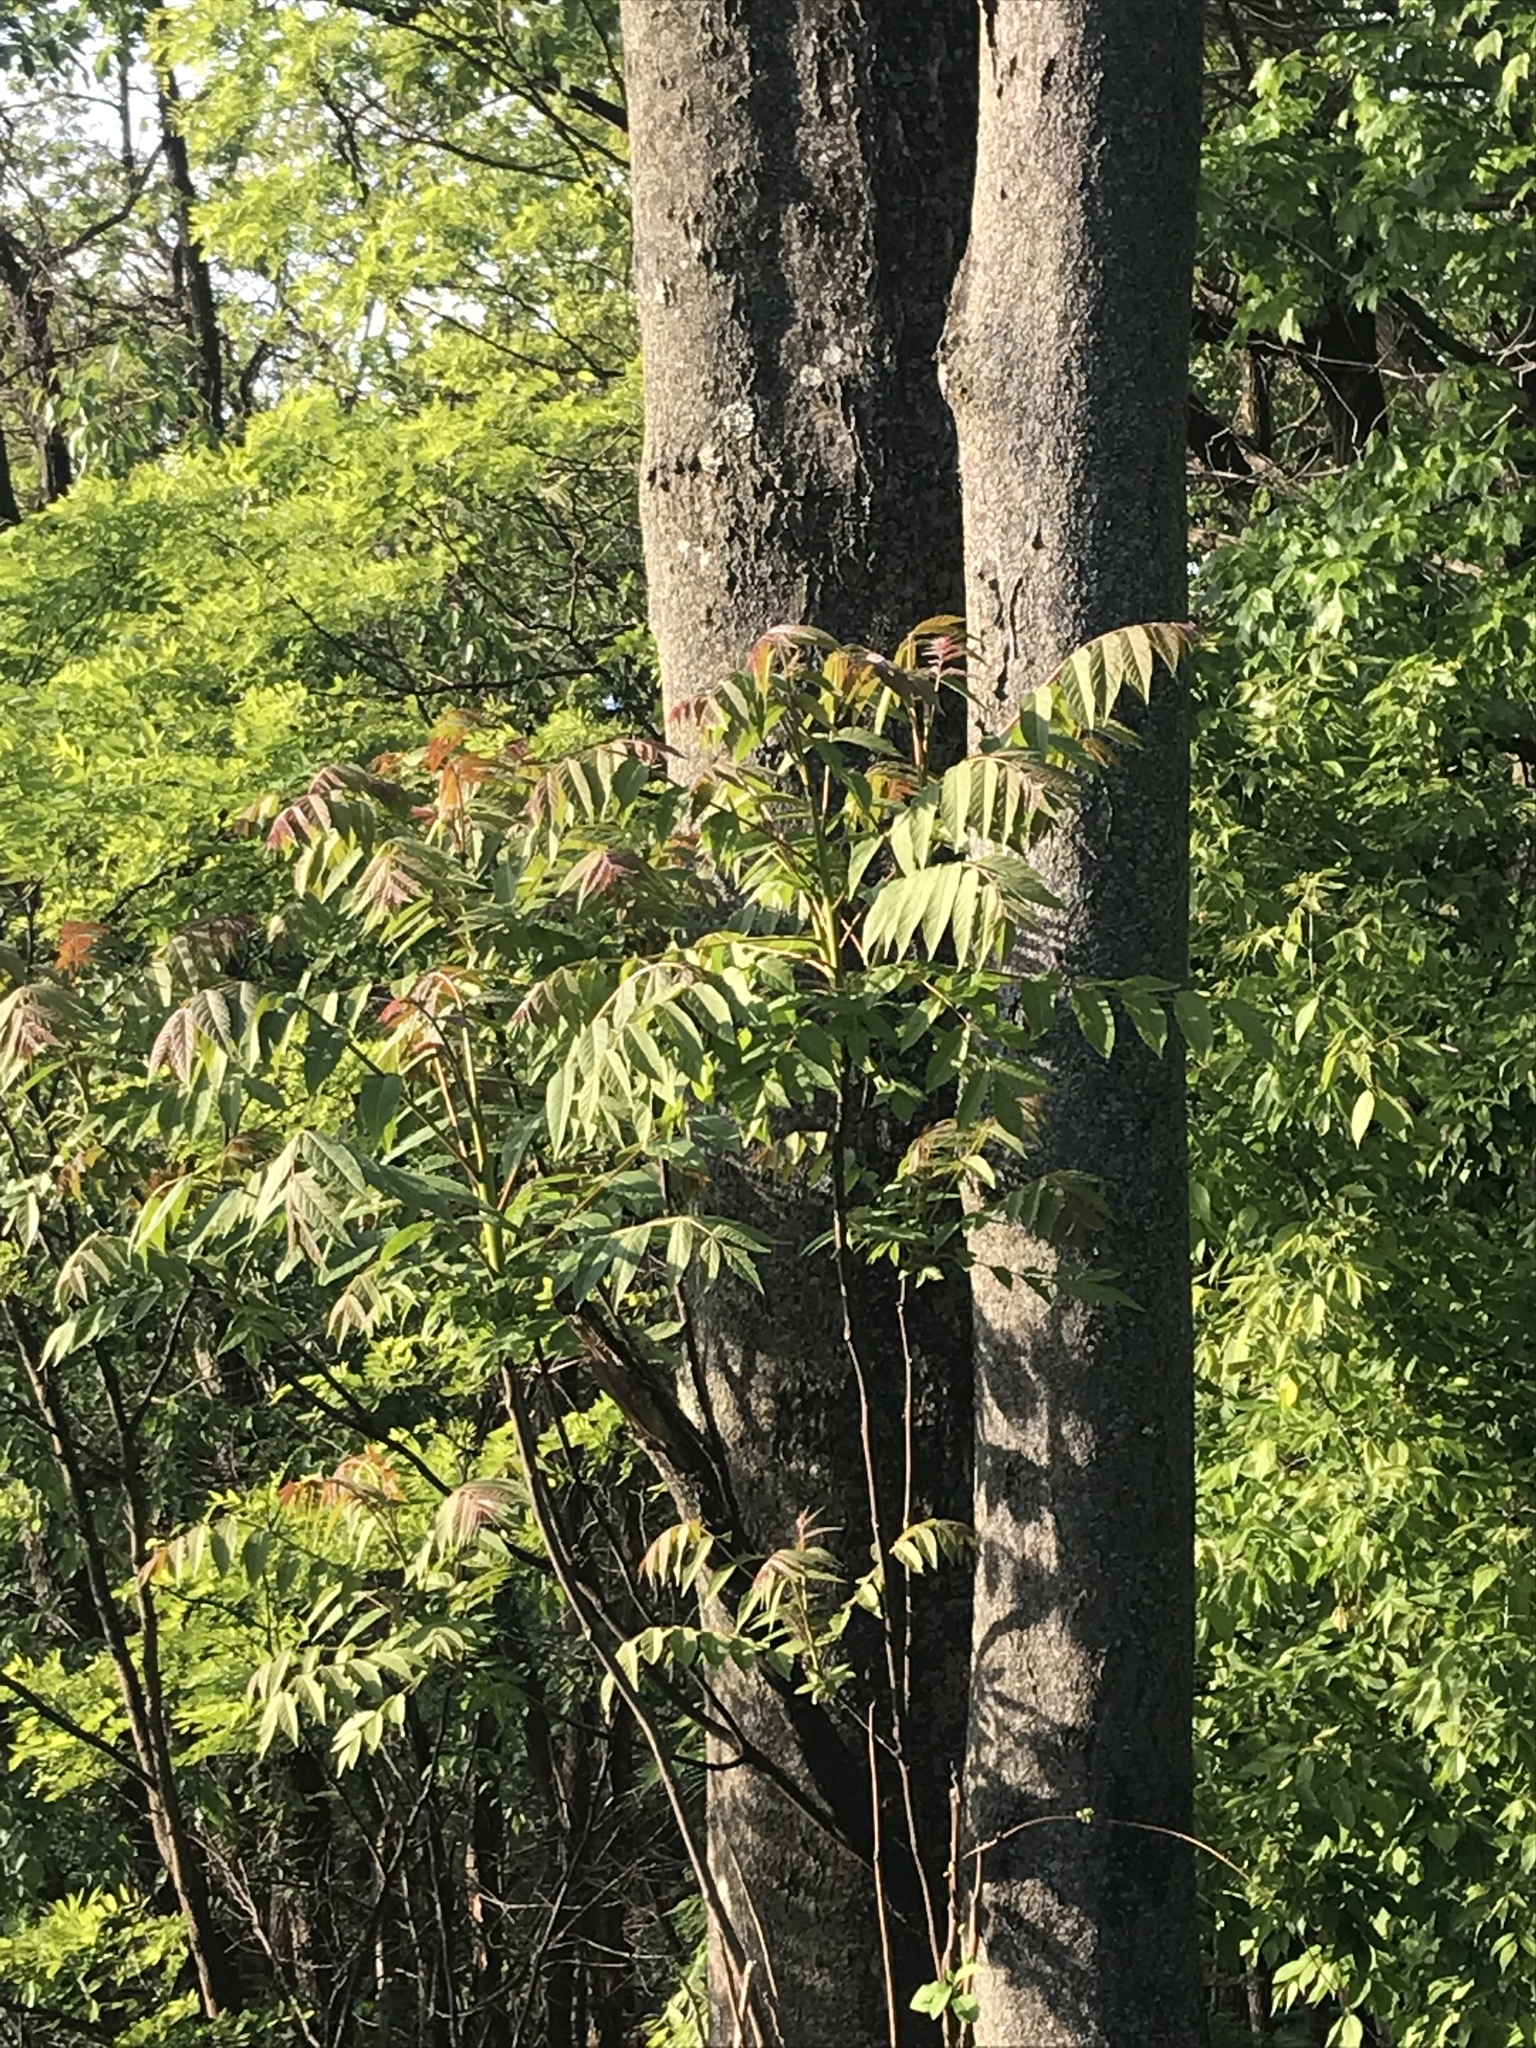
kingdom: Plantae
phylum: Tracheophyta
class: Magnoliopsida
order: Sapindales
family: Simaroubaceae
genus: Ailanthus
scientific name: Ailanthus altissima
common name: Tree-of-heaven
